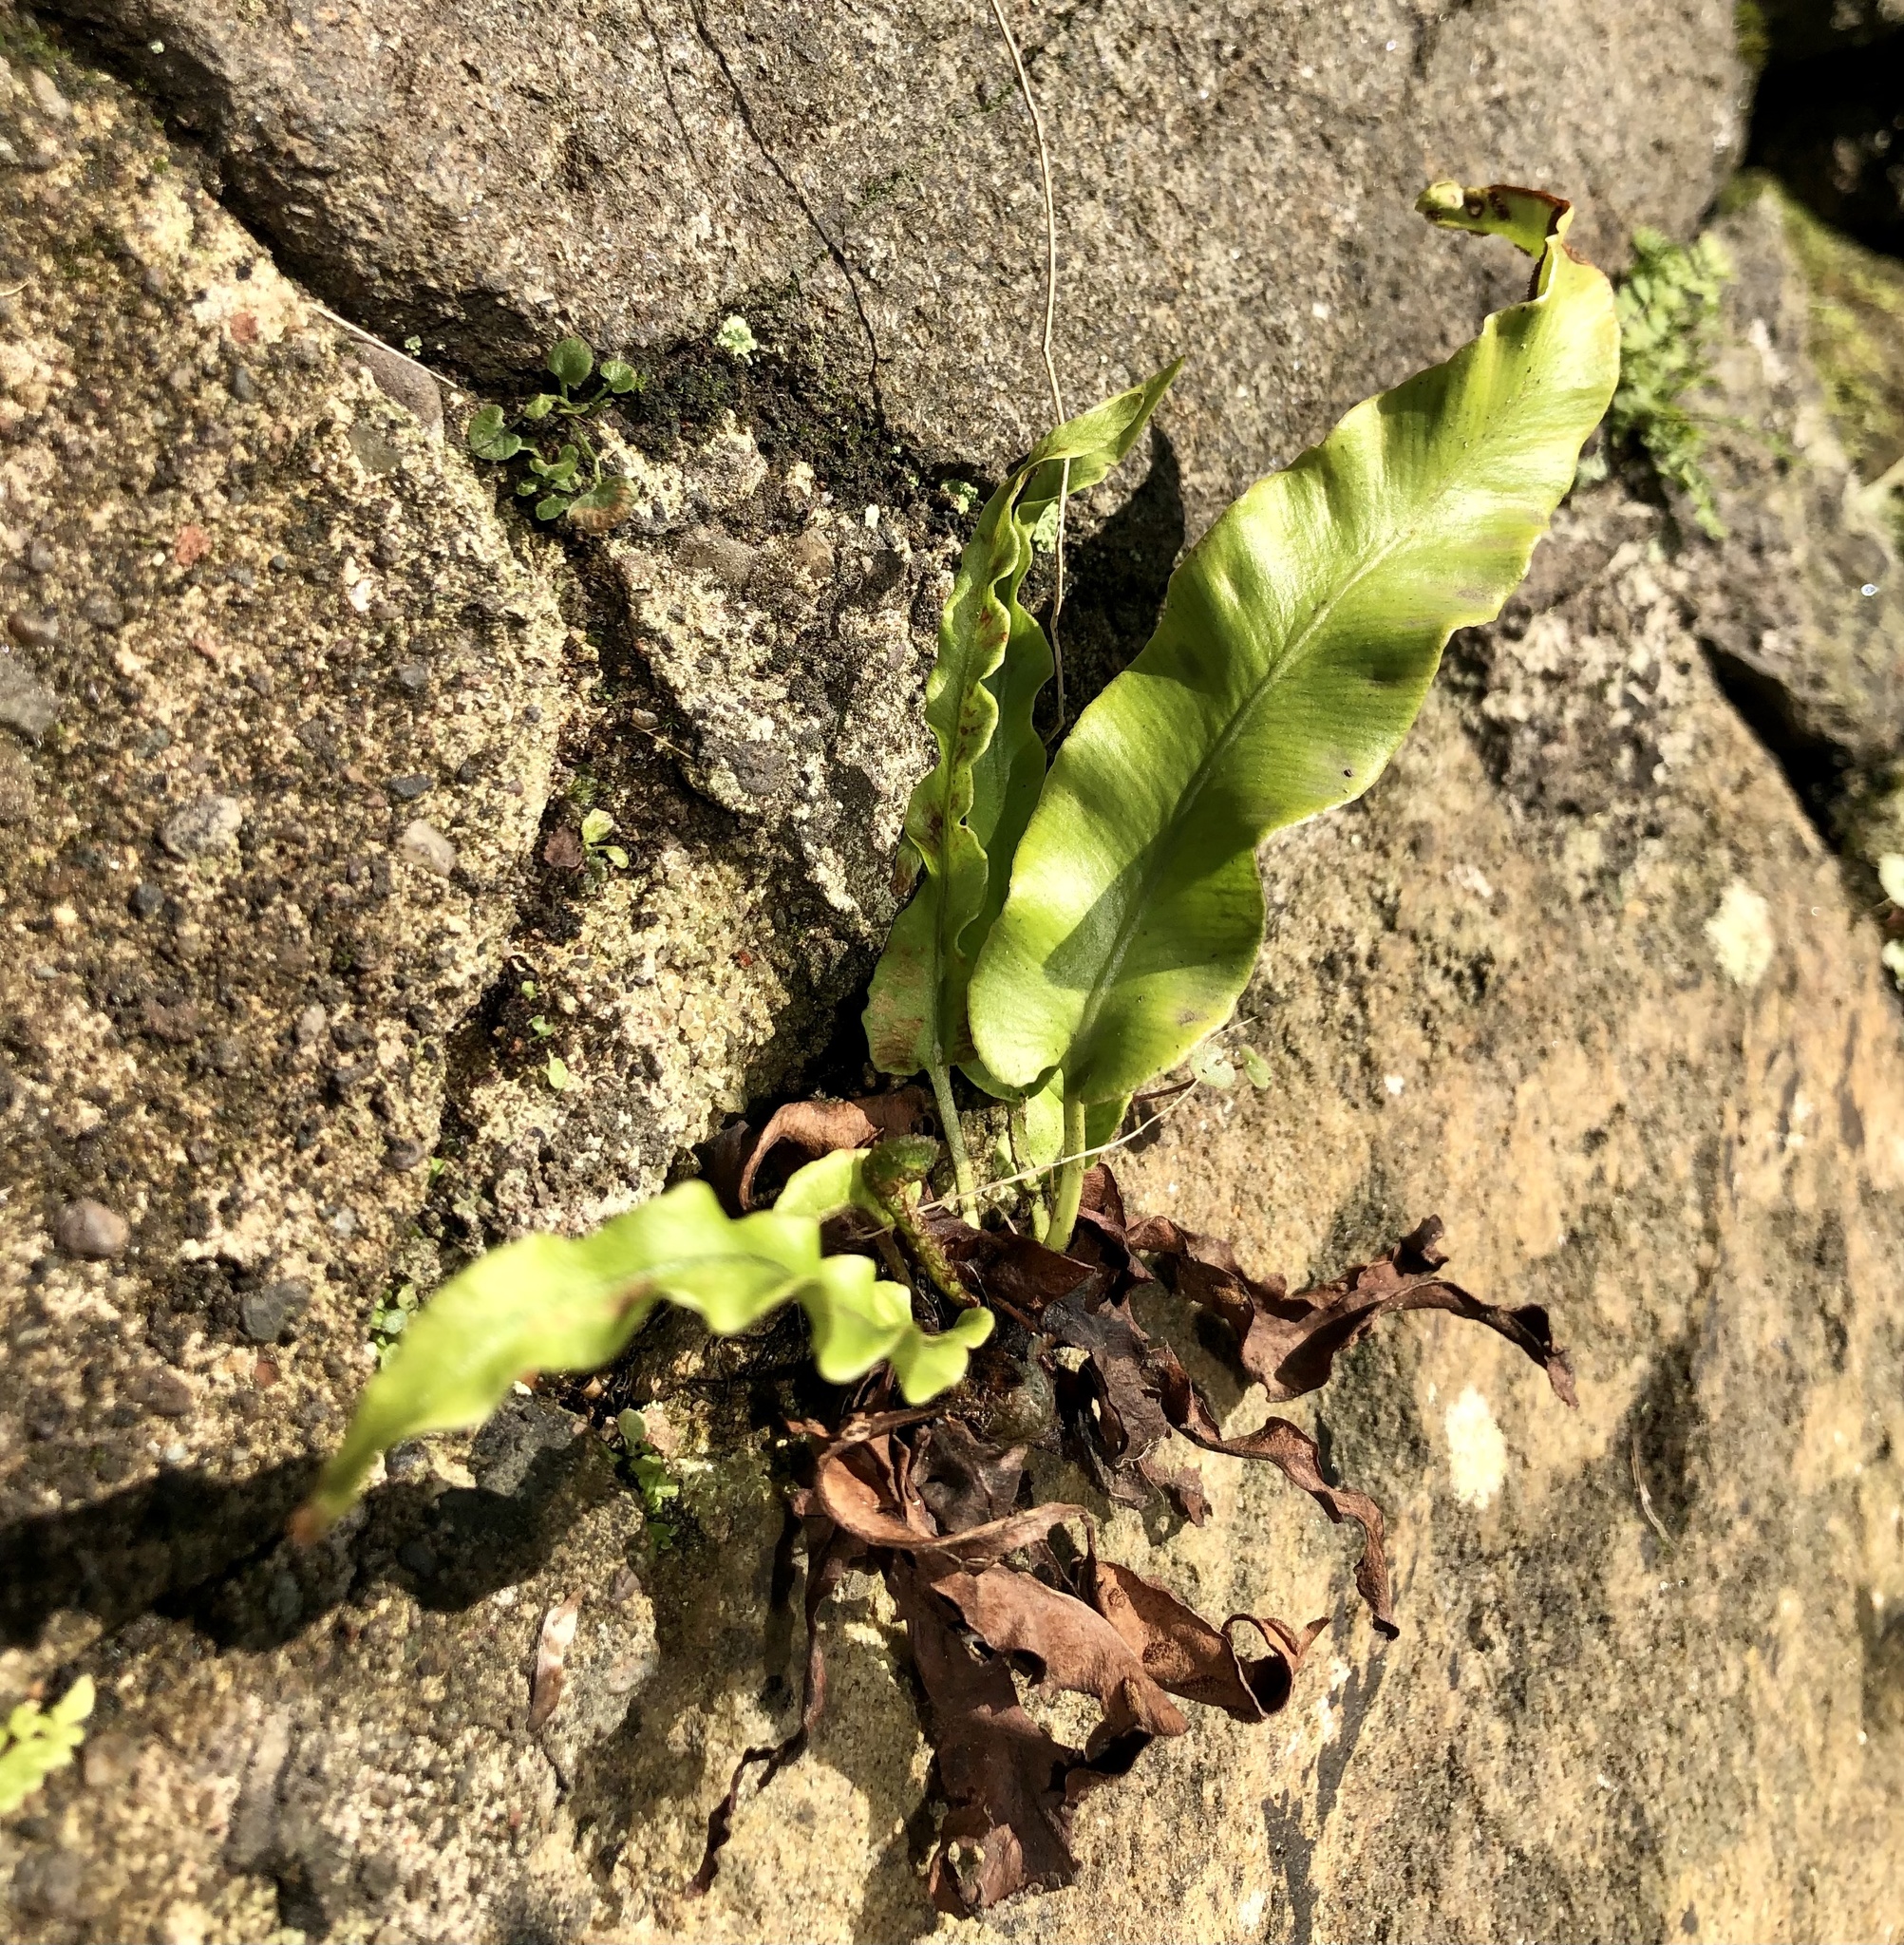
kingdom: Plantae
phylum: Tracheophyta
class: Polypodiopsida
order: Polypodiales
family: Aspleniaceae
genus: Asplenium
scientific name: Asplenium scolopendrium
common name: Hart's-tongue fern
